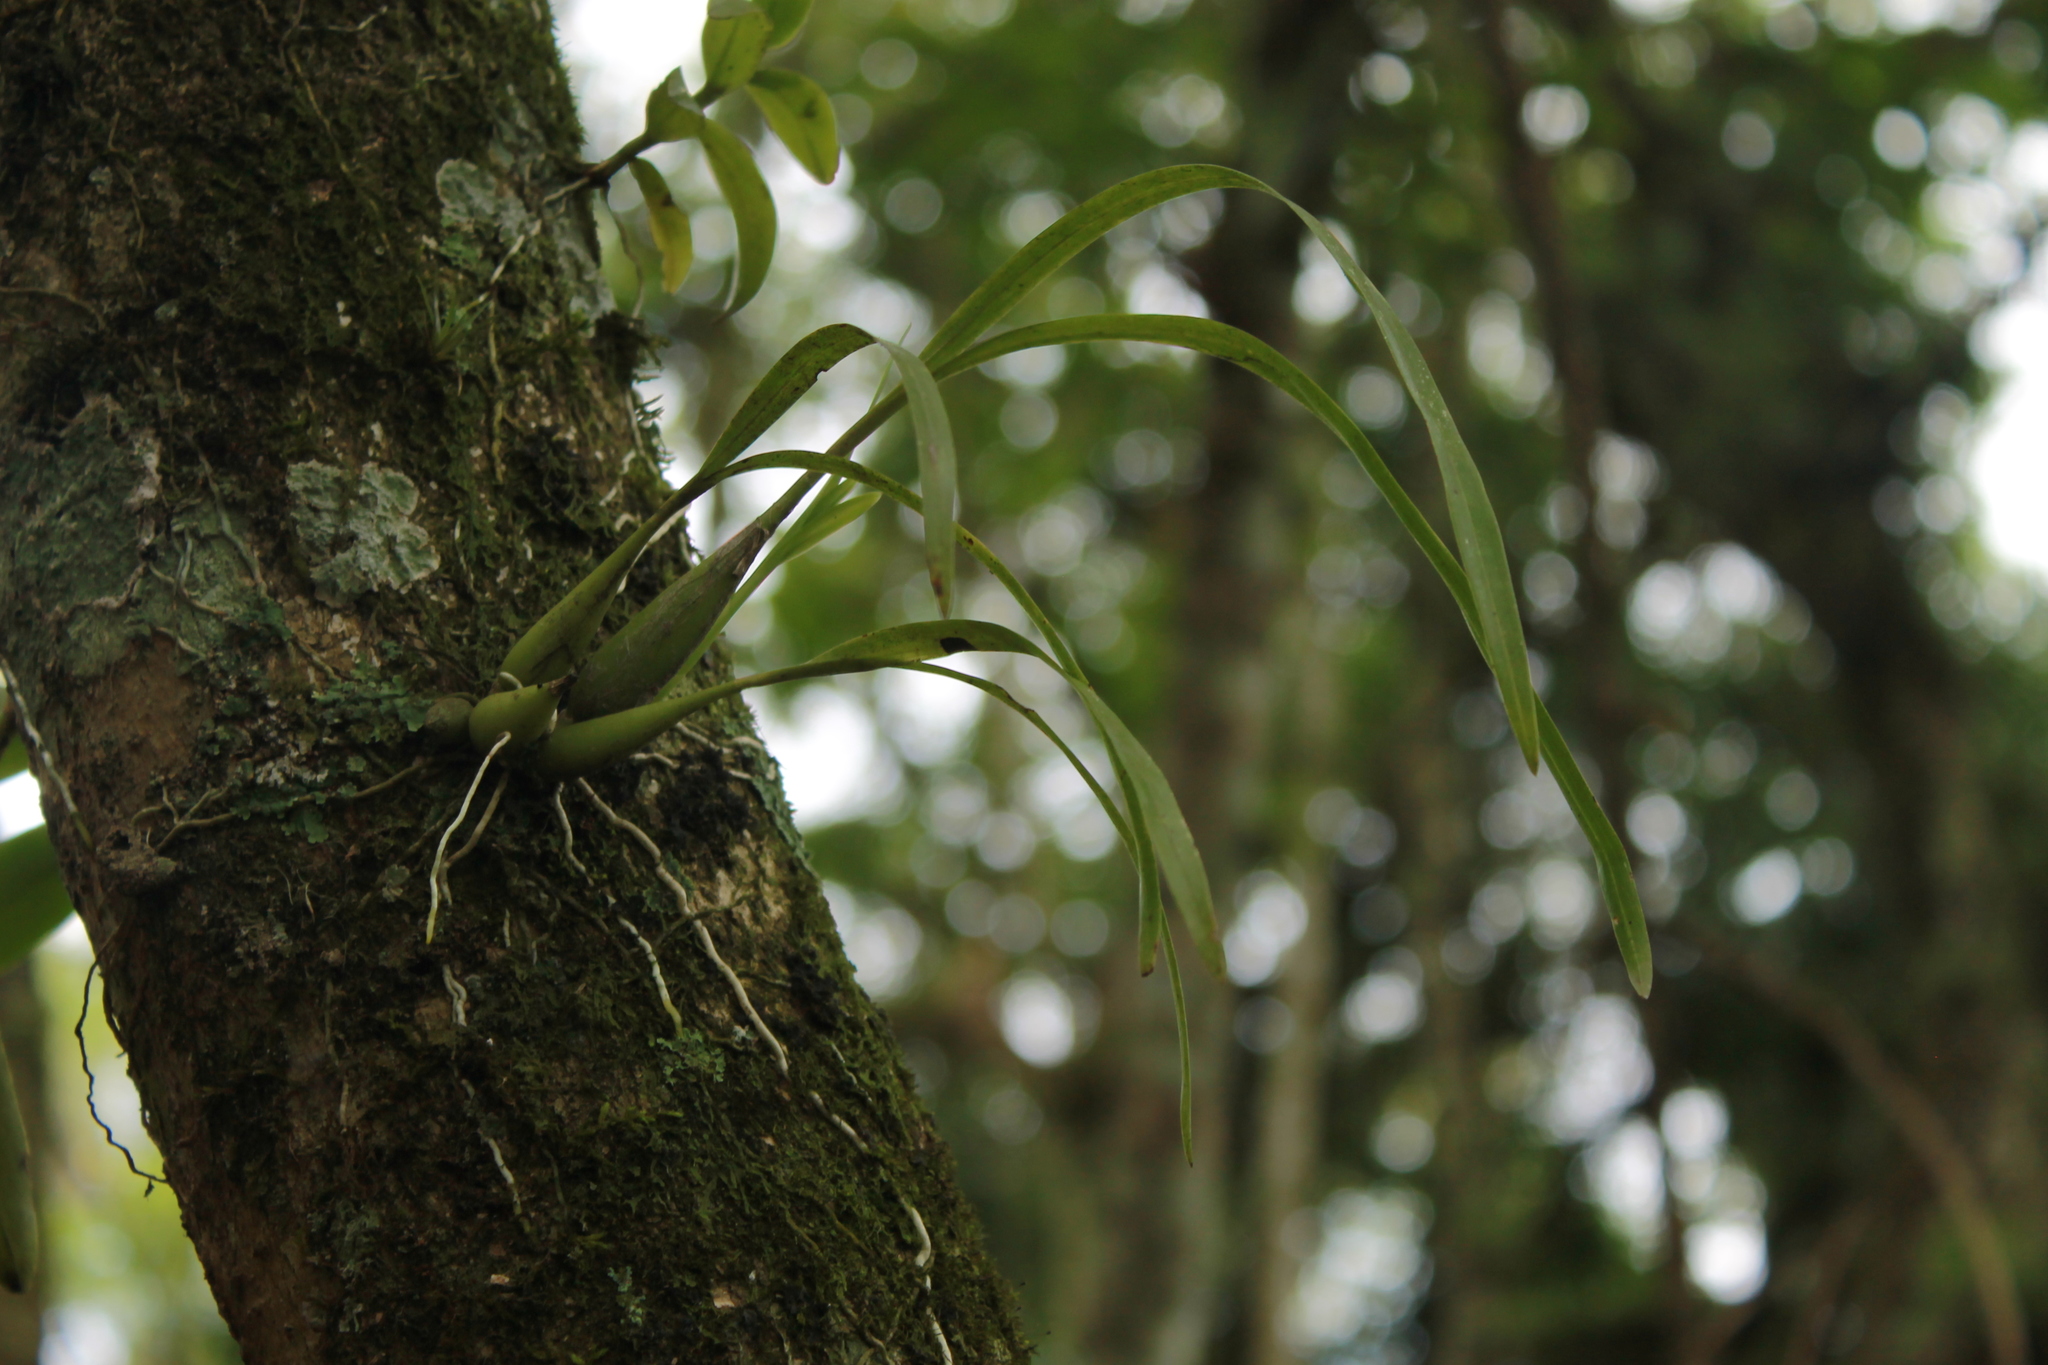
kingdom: Plantae
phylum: Tracheophyta
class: Liliopsida
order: Asparagales
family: Orchidaceae
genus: Prosthechea
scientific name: Prosthechea ochracea
